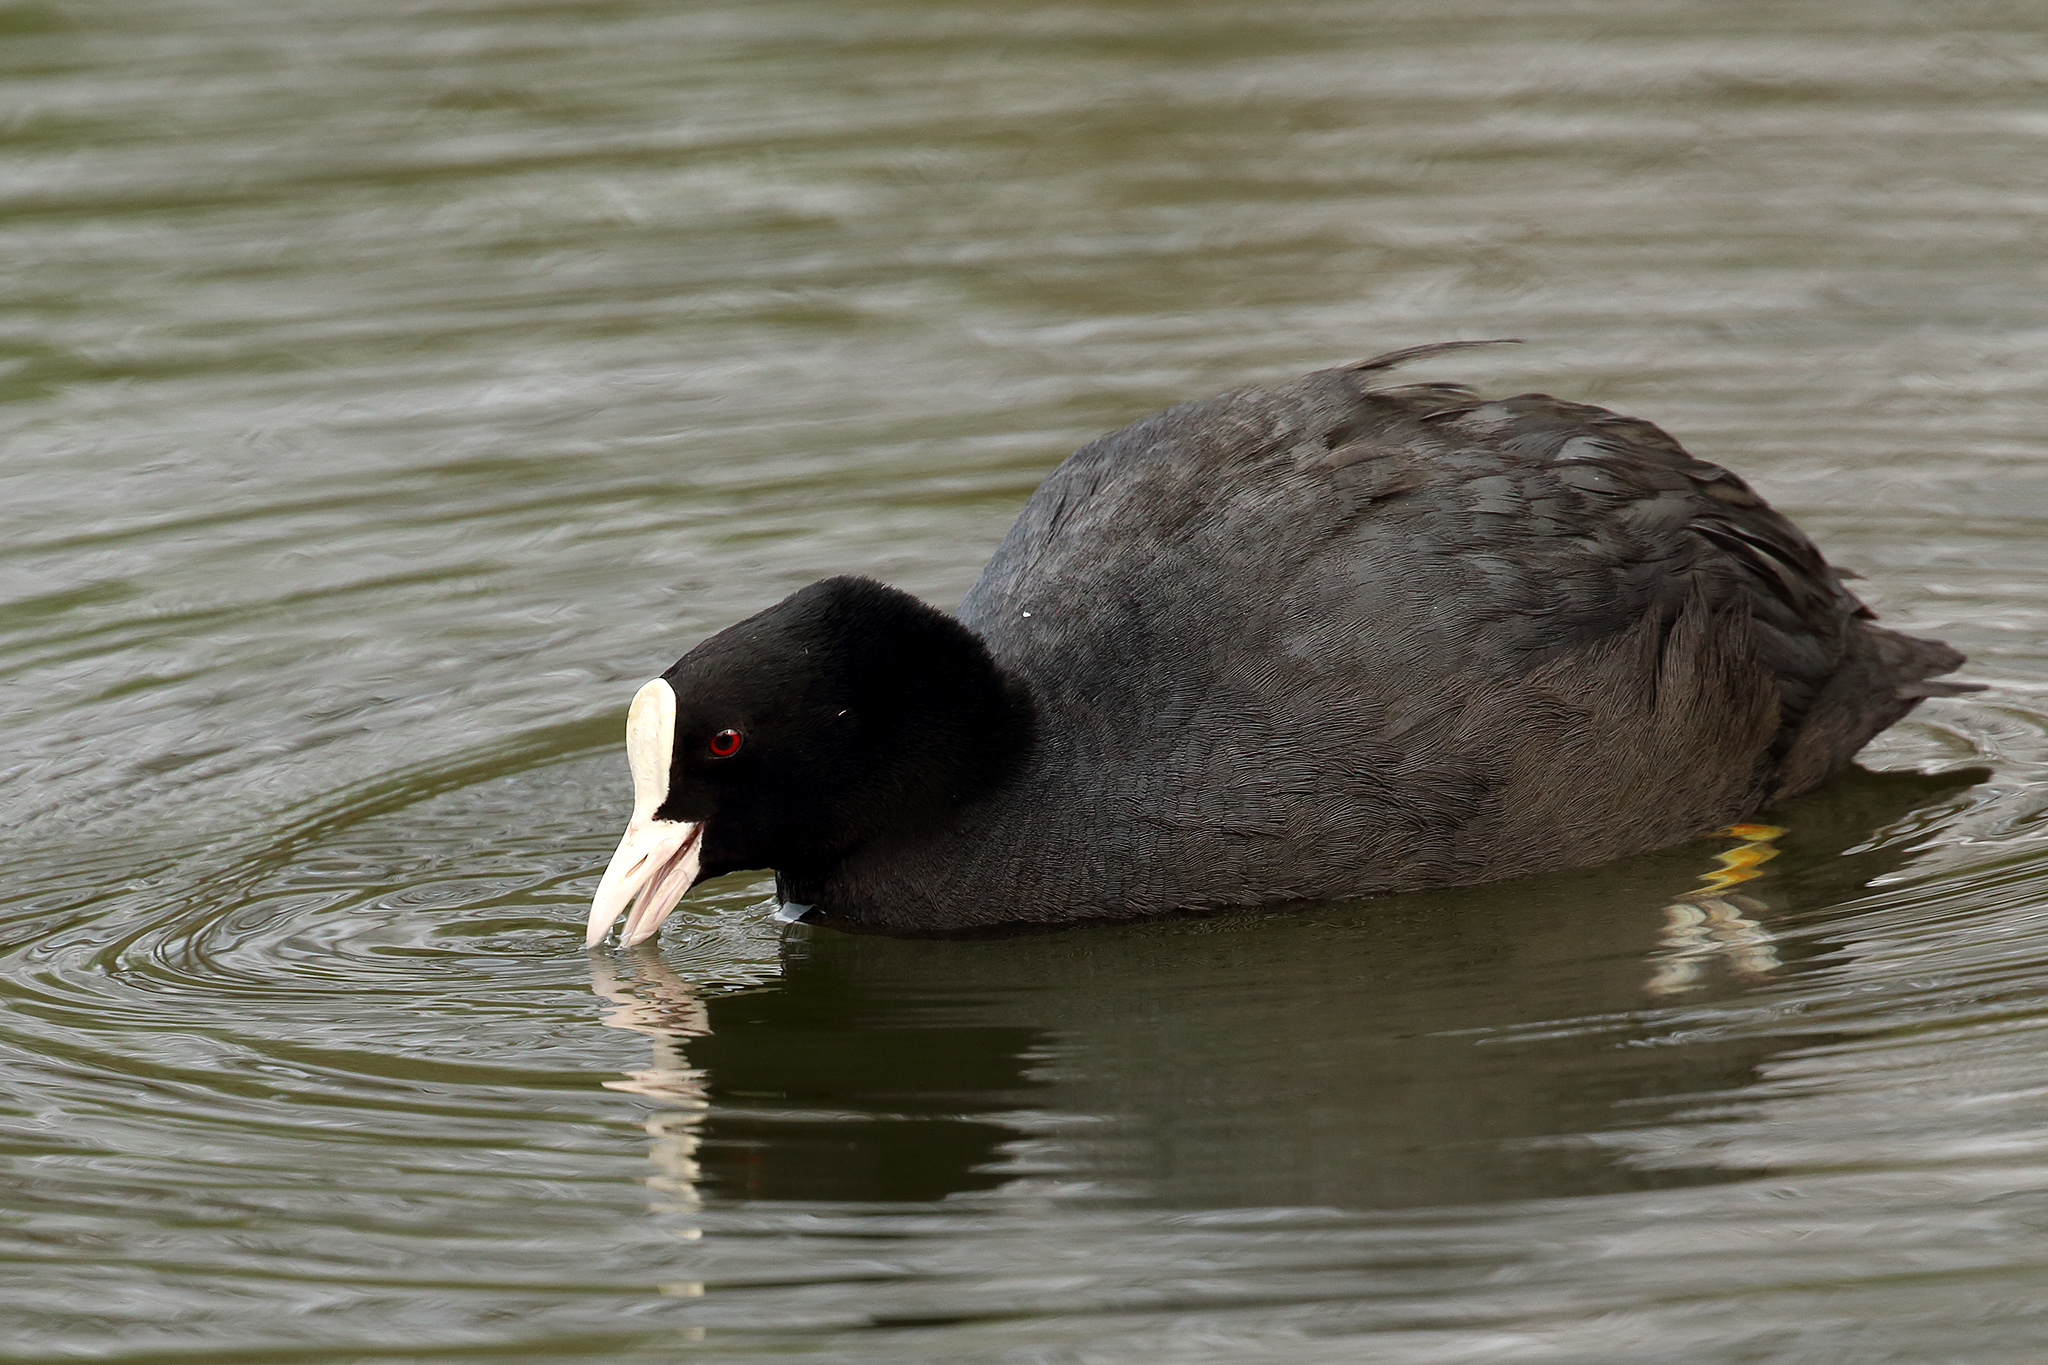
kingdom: Animalia
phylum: Chordata
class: Aves
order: Gruiformes
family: Rallidae
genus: Fulica
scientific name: Fulica atra
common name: Eurasian coot
